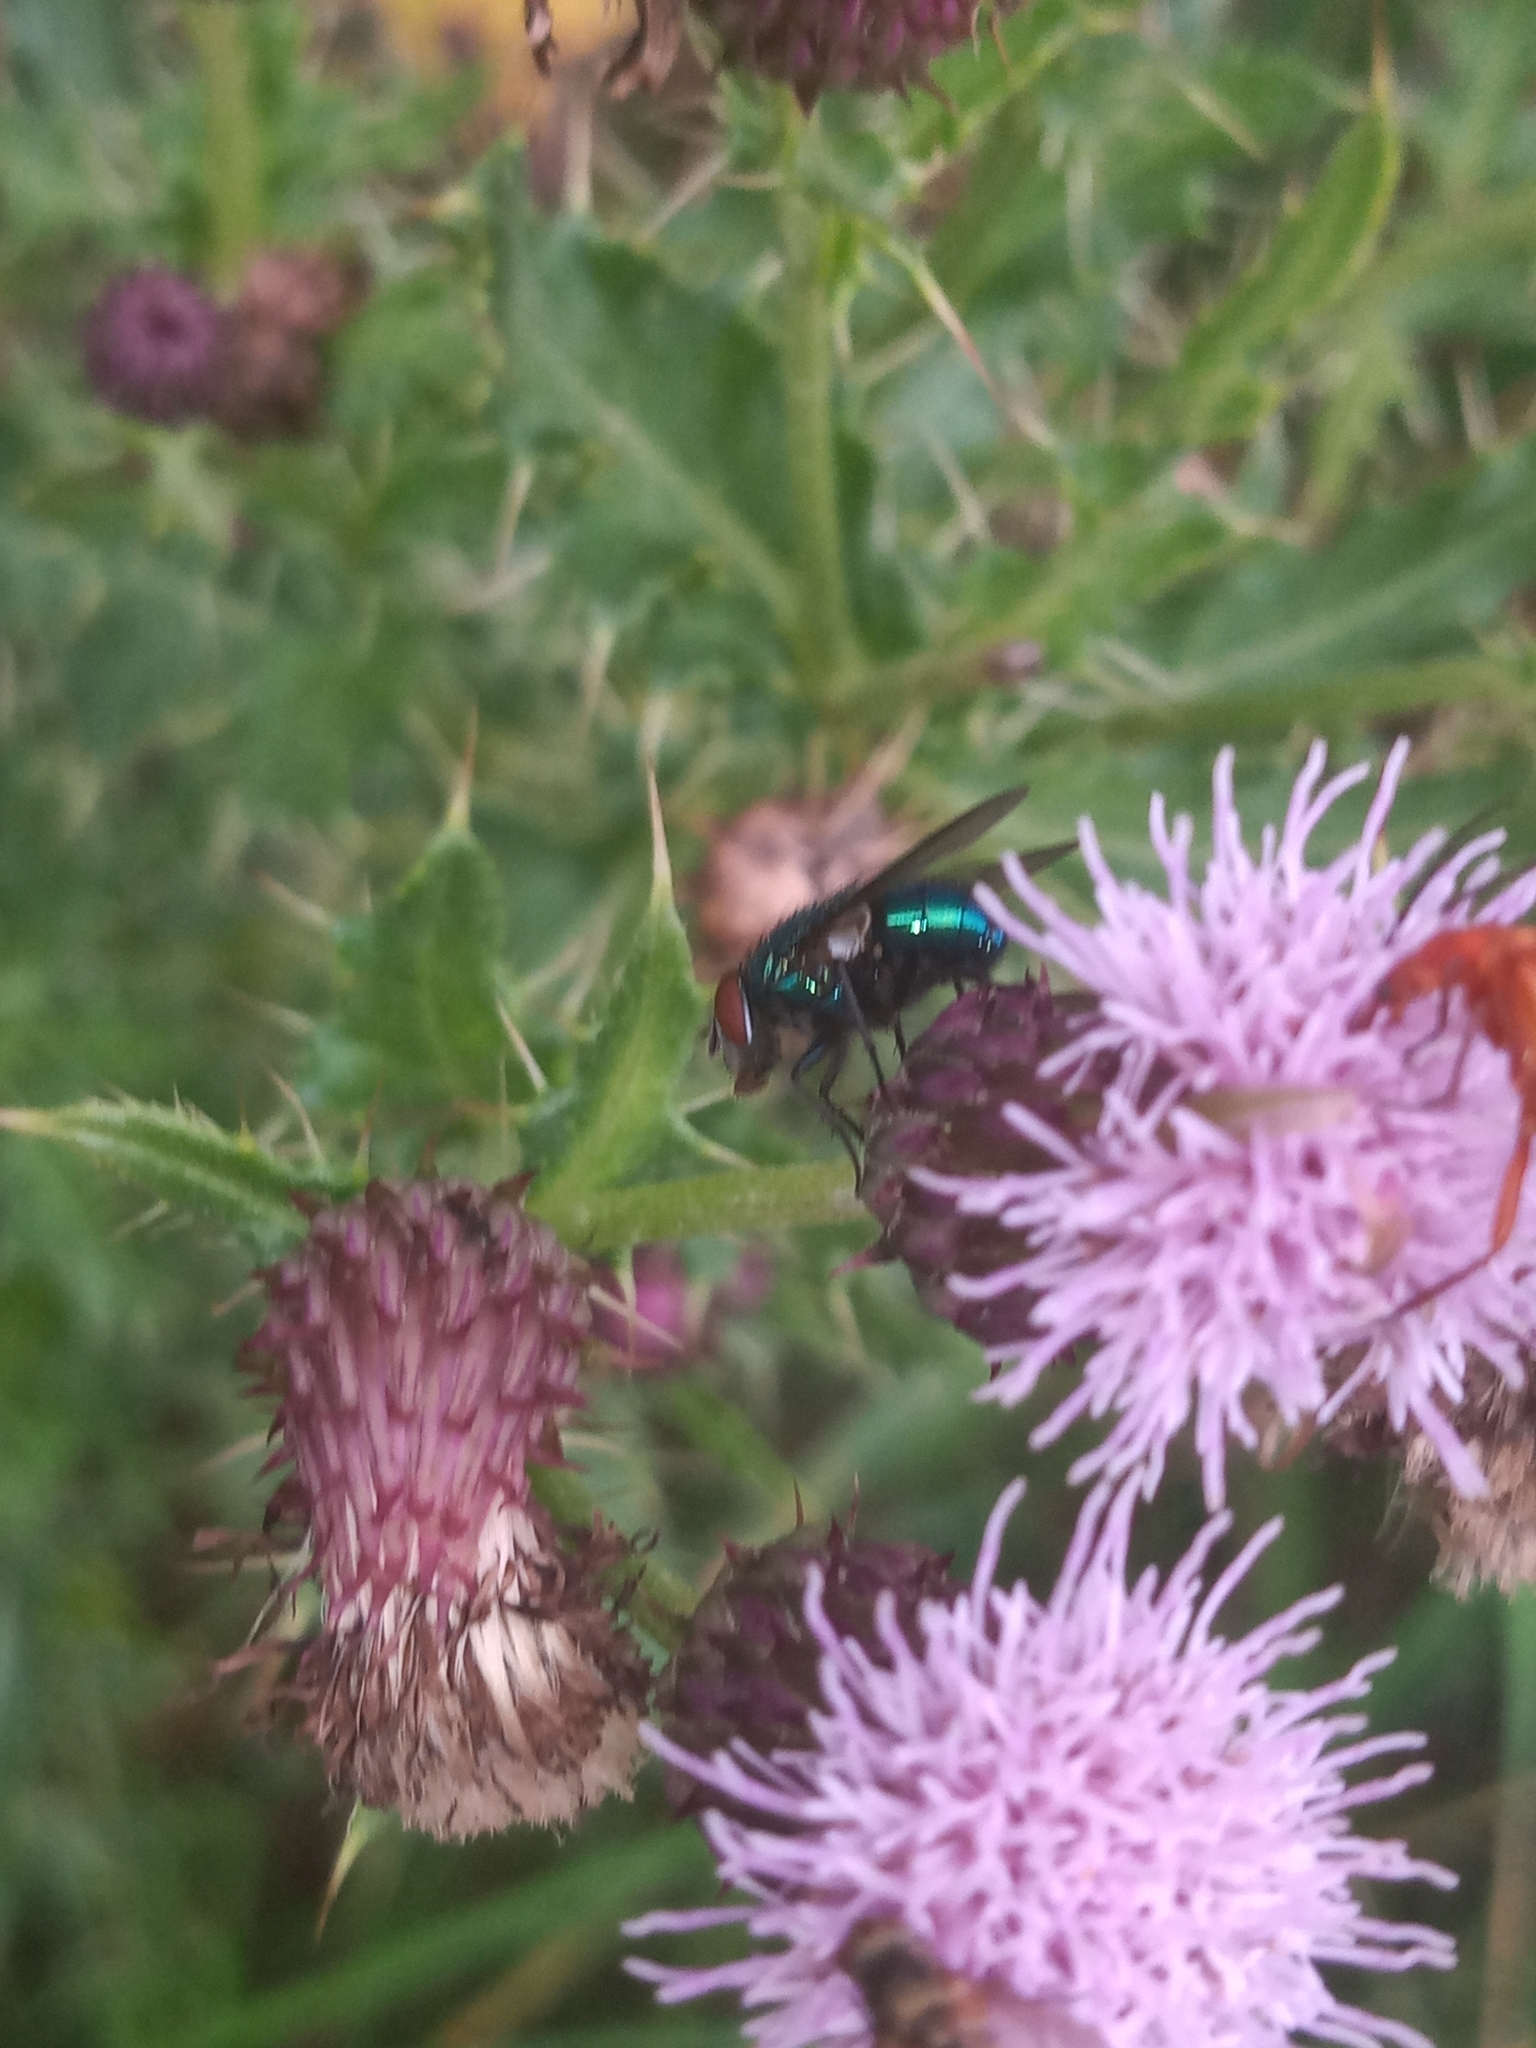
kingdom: Animalia
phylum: Arthropoda
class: Insecta
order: Diptera
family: Calliphoridae
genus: Lucilia
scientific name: Lucilia
